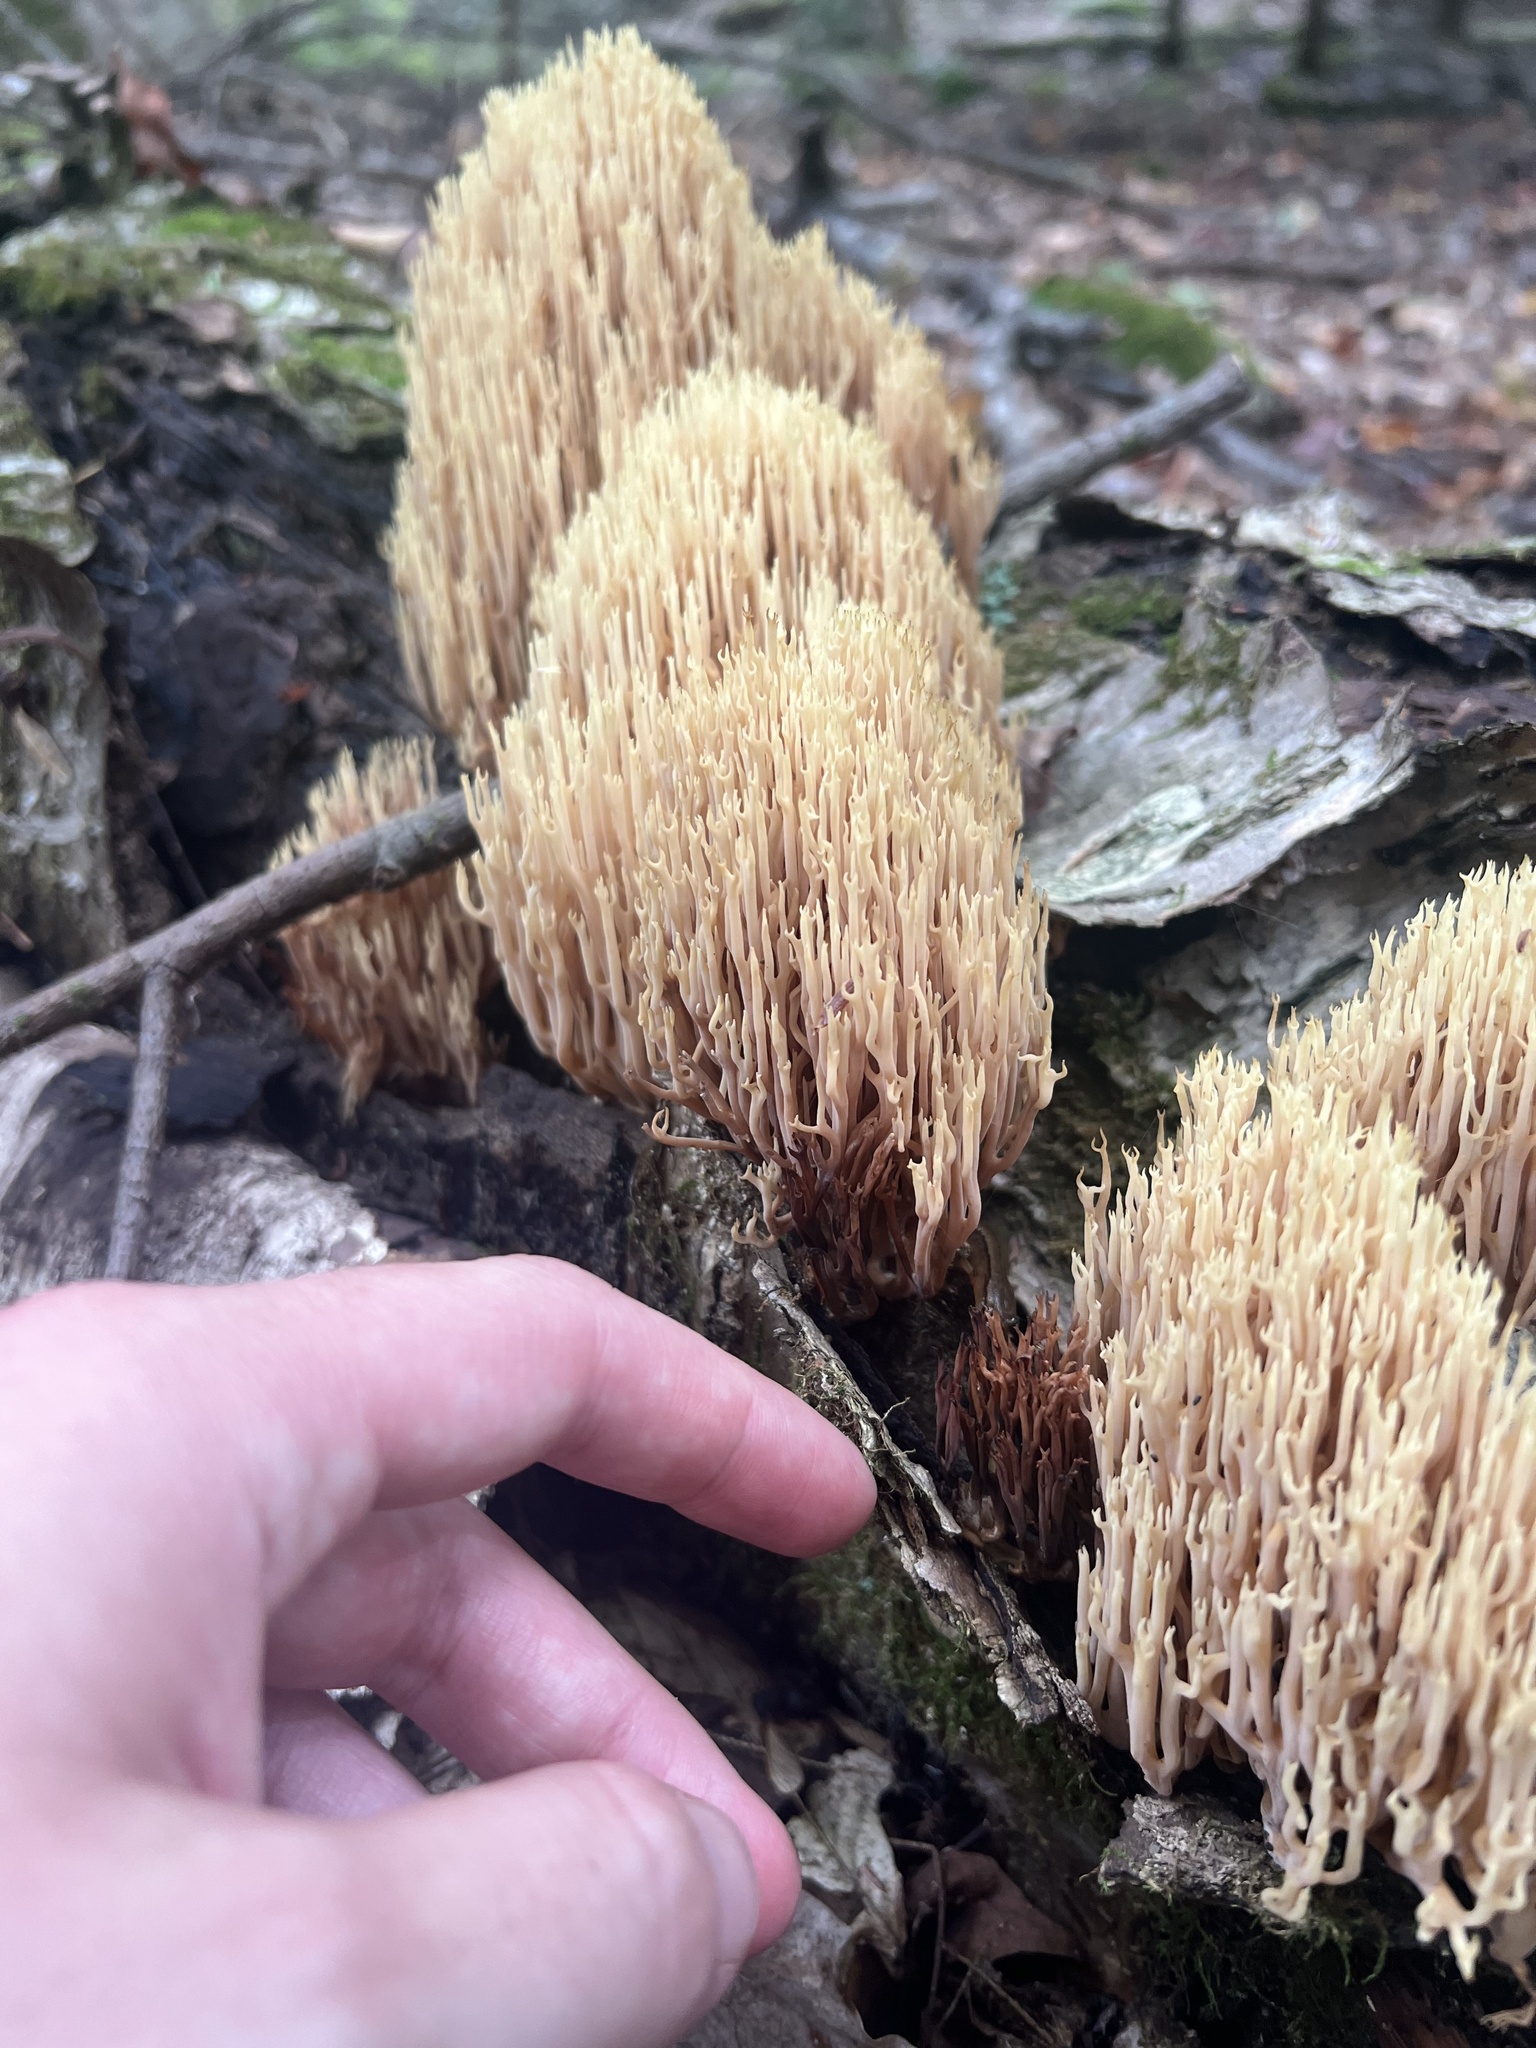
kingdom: Animalia
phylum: Chordata
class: Amphibia
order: Caudata
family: Plethodontidae
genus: Eurycea
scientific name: Eurycea bislineata
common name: Northern two-lined salamander
